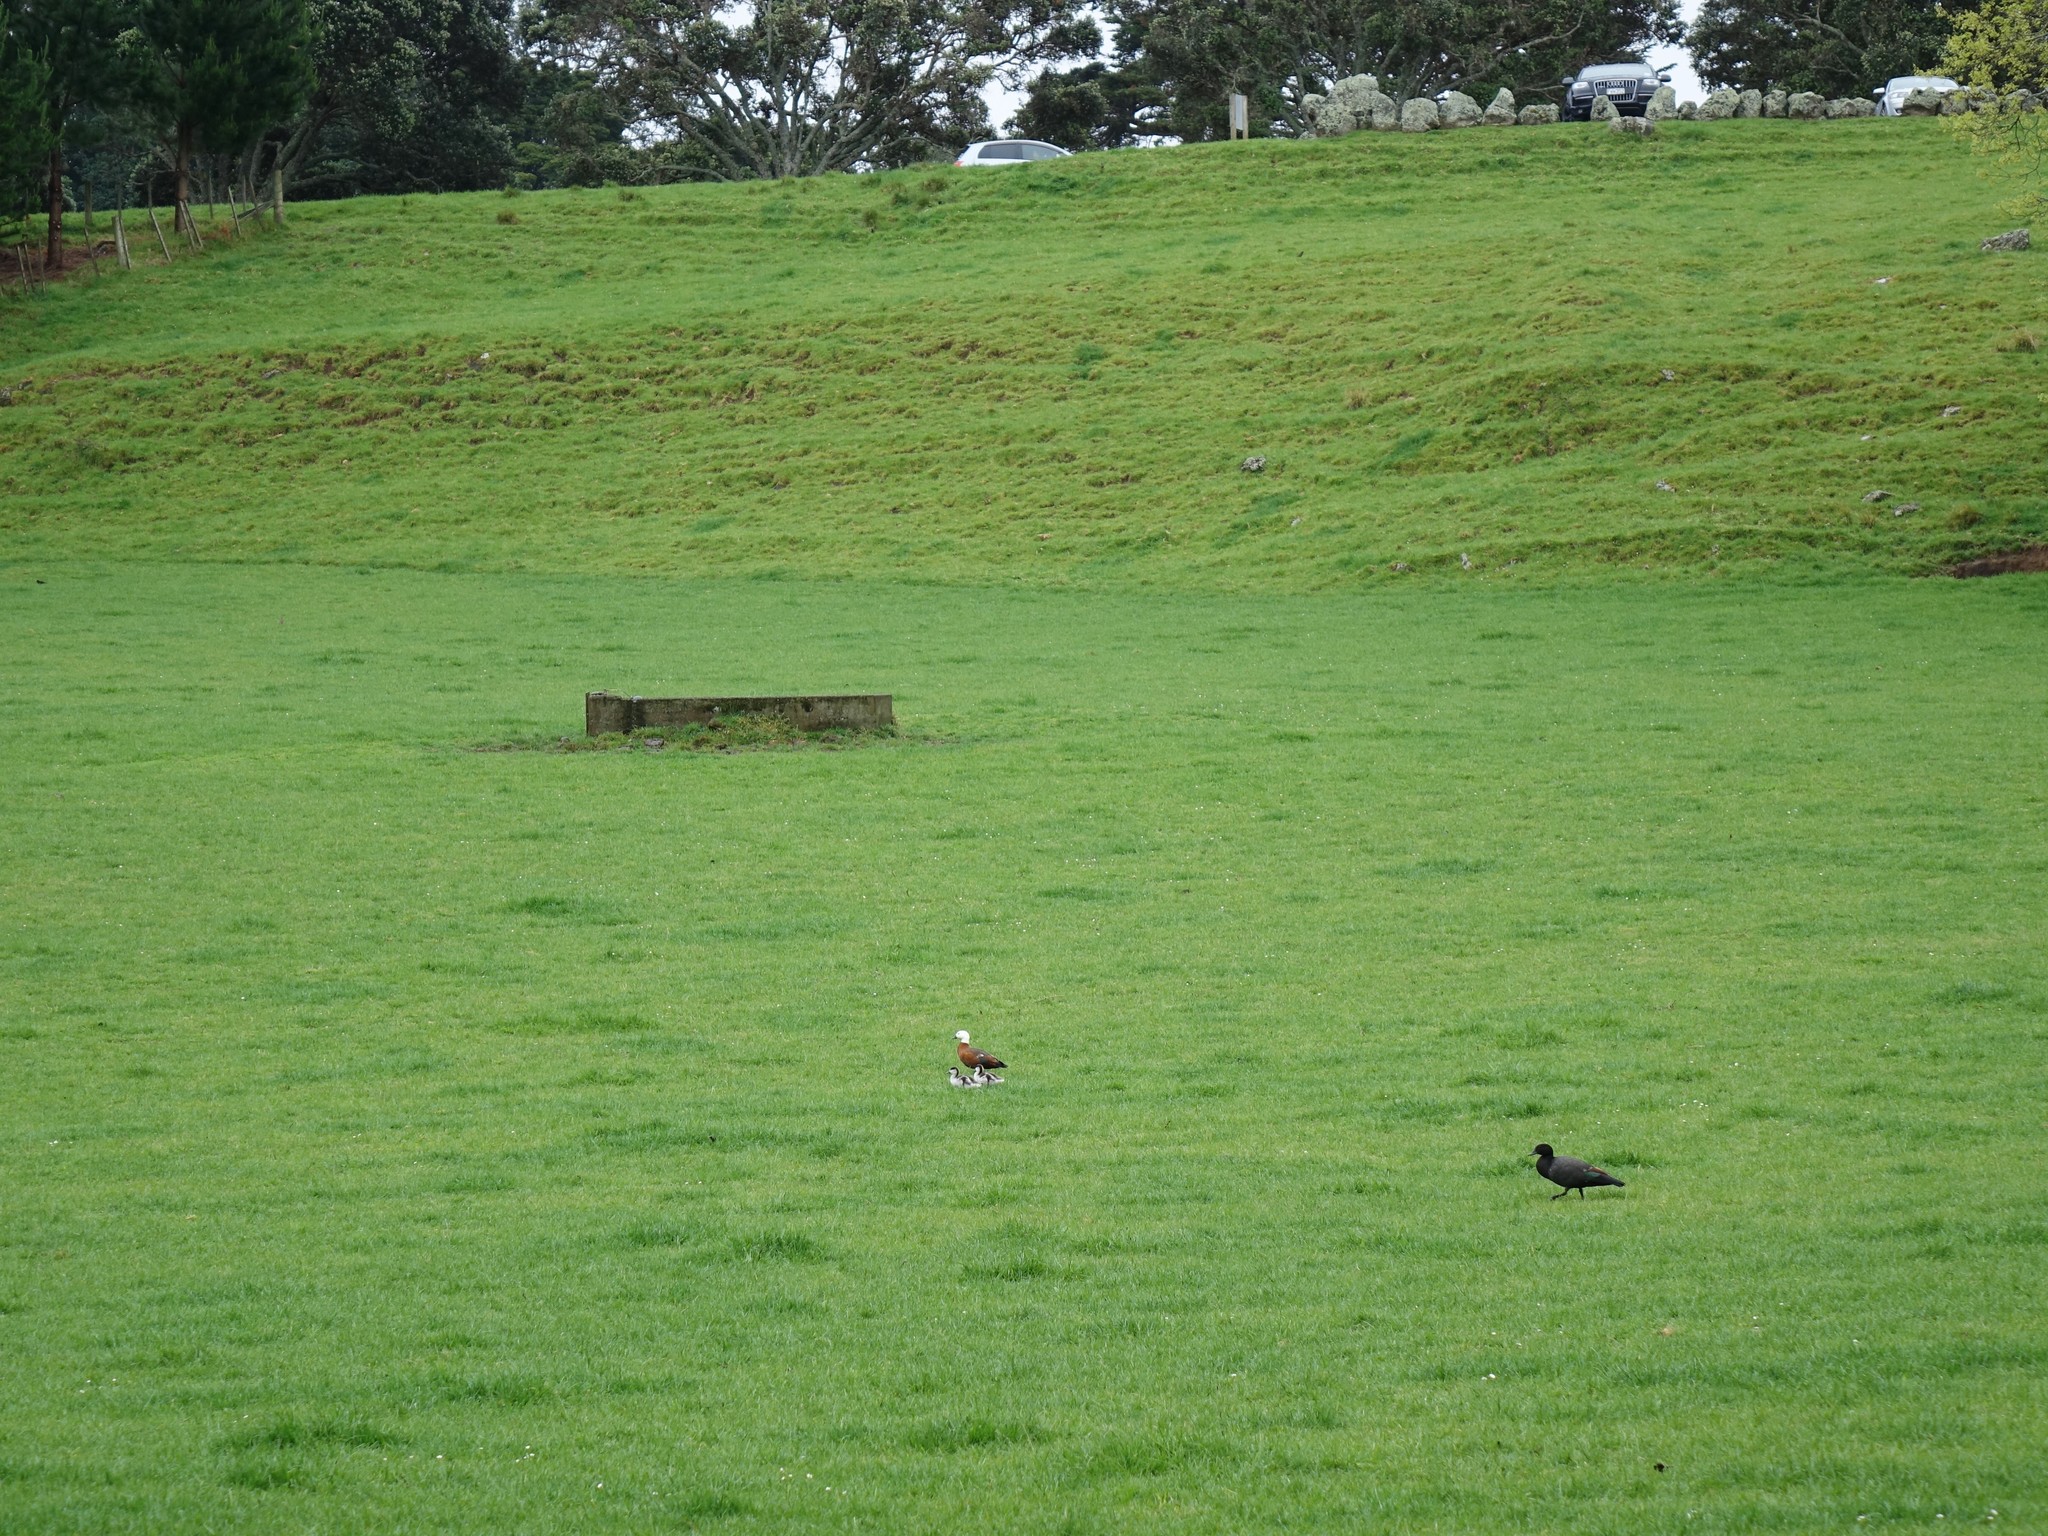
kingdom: Animalia
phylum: Chordata
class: Aves
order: Anseriformes
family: Anatidae
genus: Tadorna
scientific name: Tadorna variegata
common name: Paradise shelduck
